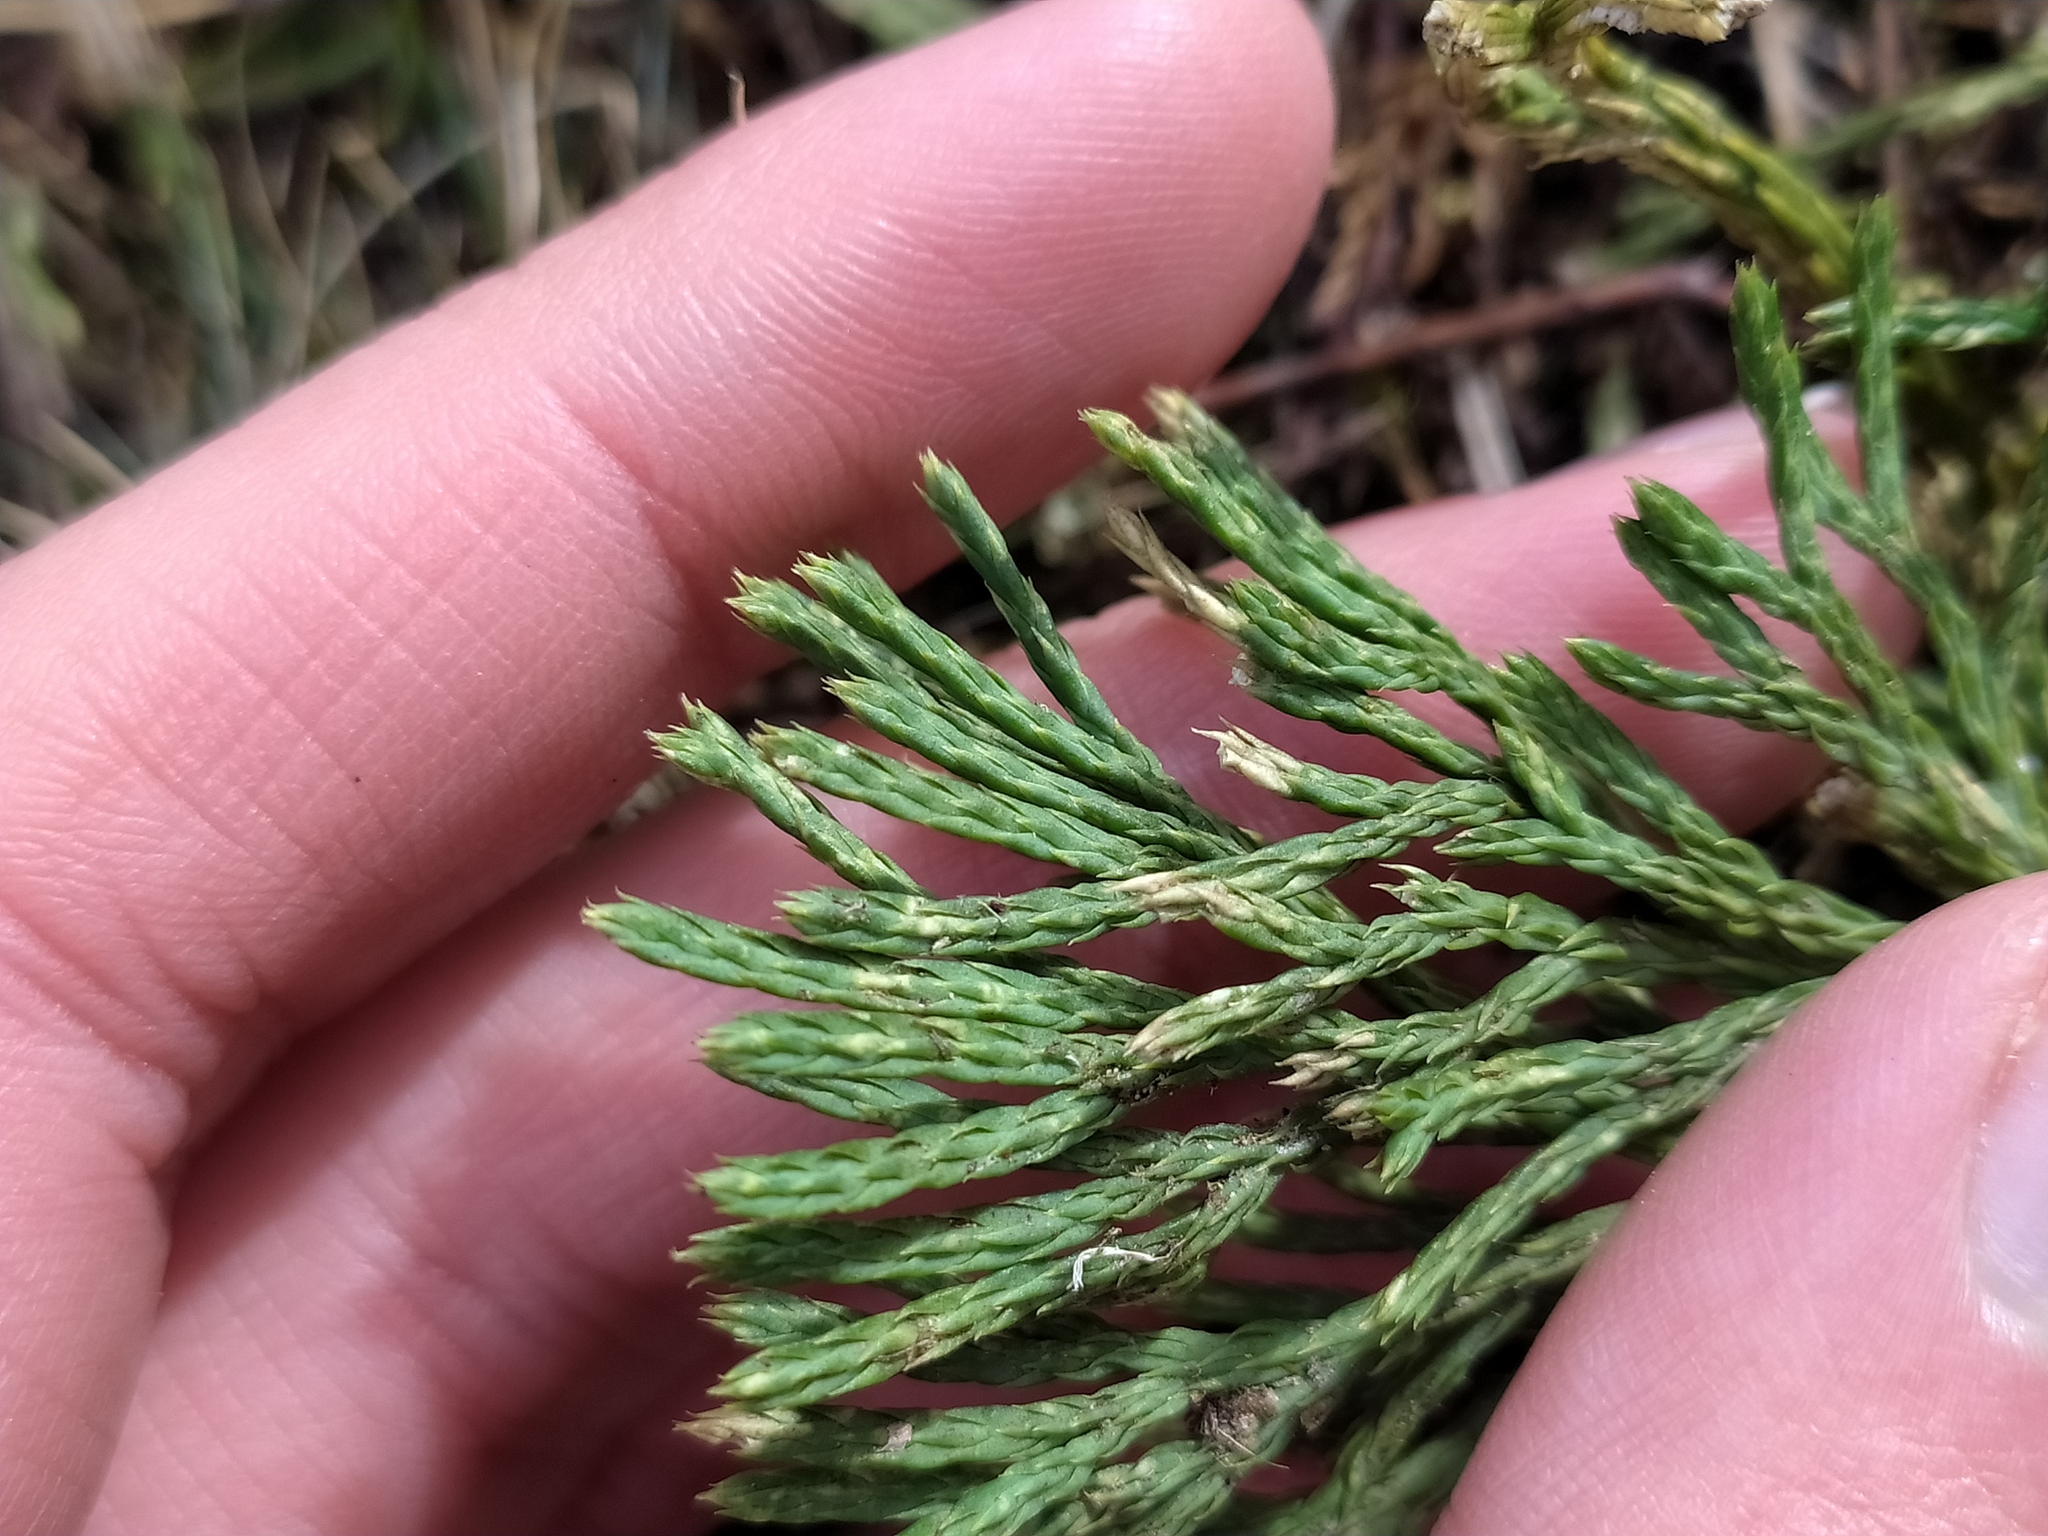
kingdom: Plantae
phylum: Tracheophyta
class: Lycopodiopsida
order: Lycopodiales
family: Lycopodiaceae
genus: Diphasiastrum
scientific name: Diphasiastrum tristachyum
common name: Blue ground-cedar
